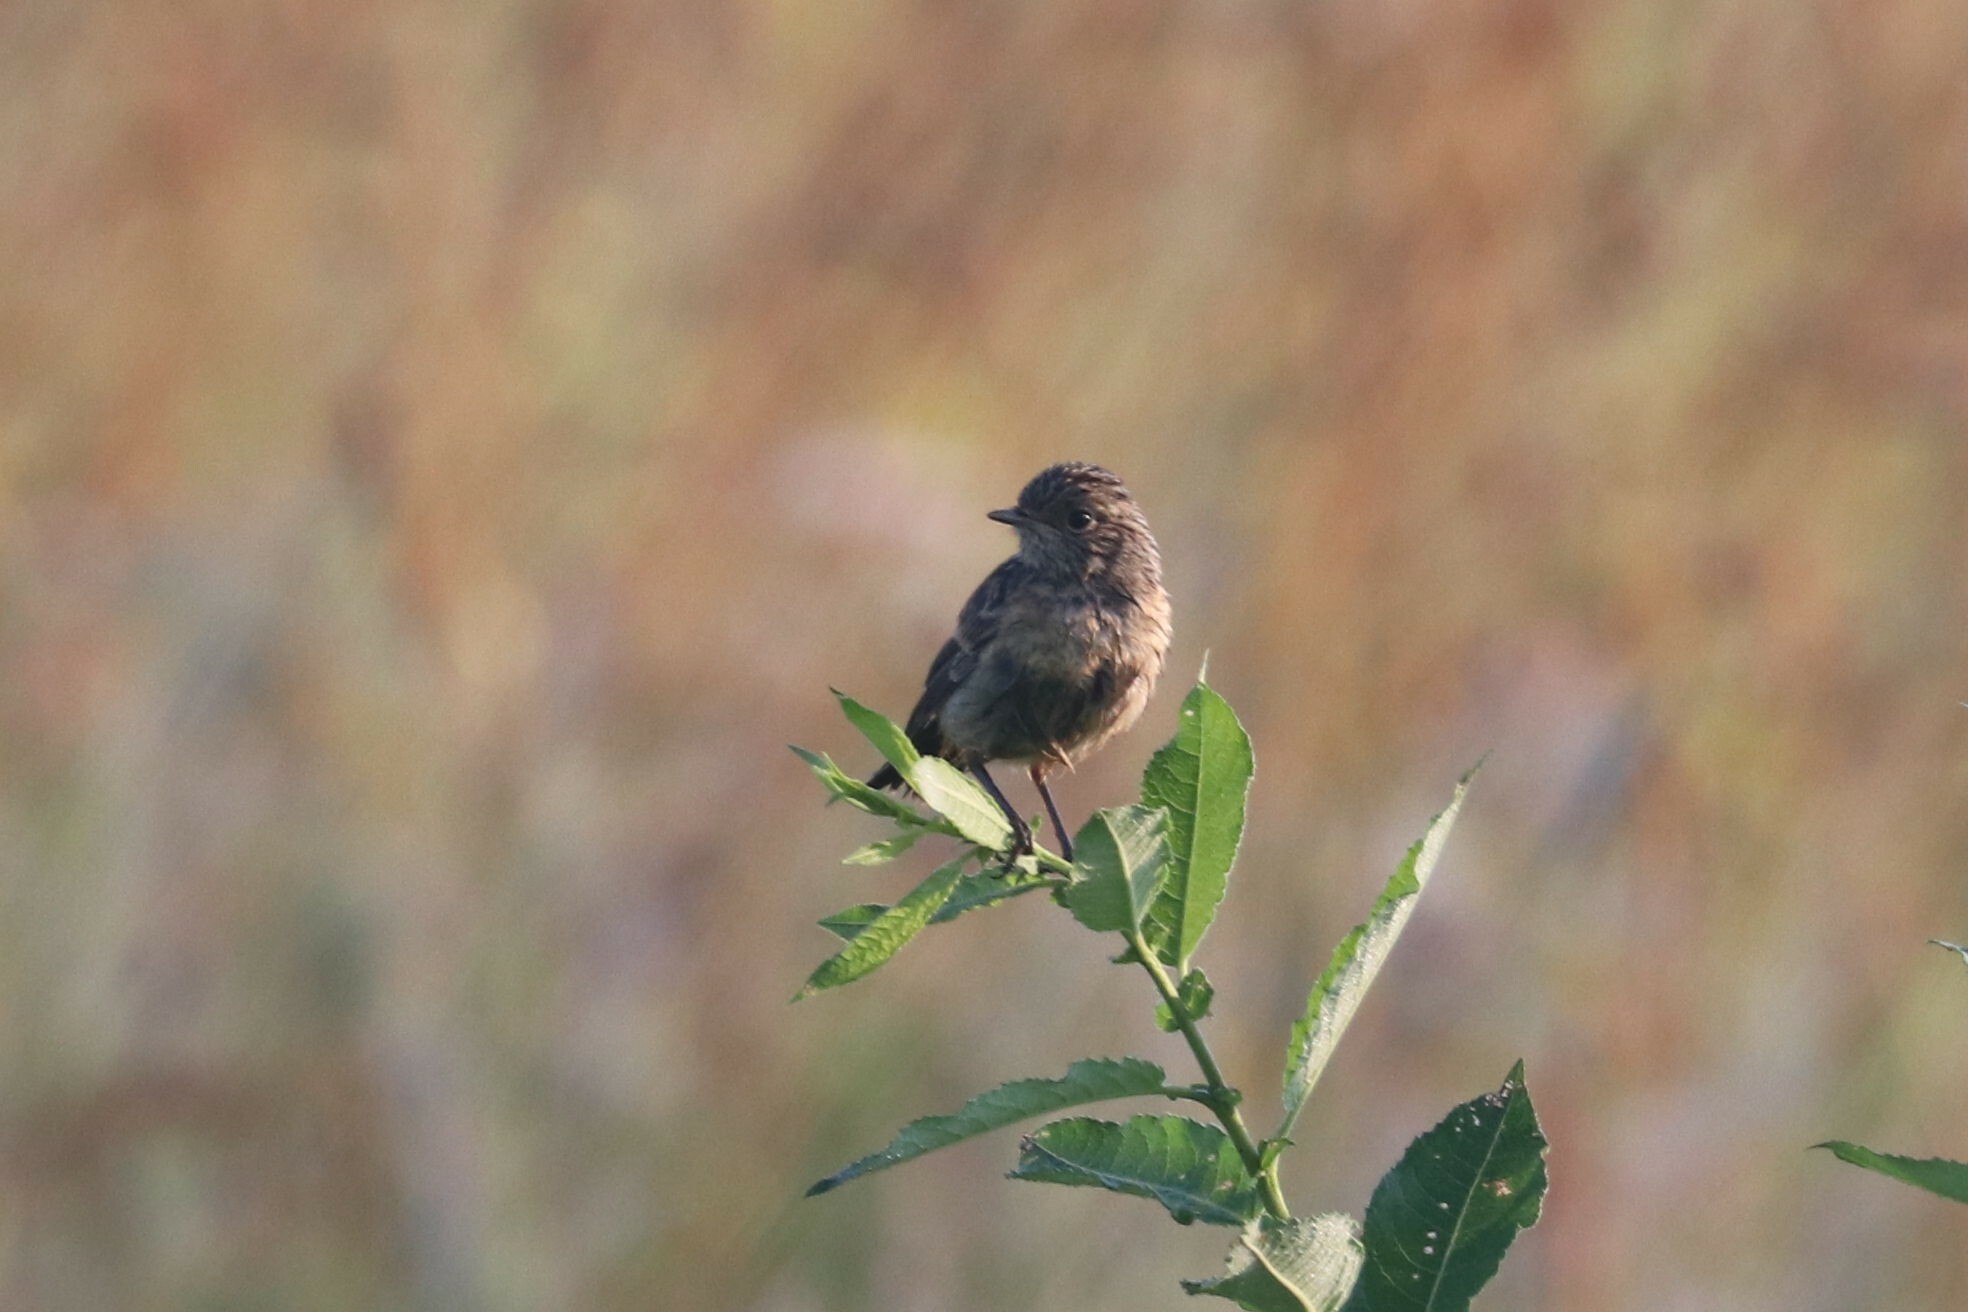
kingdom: Animalia
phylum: Chordata
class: Aves
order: Passeriformes
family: Muscicapidae
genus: Saxicola
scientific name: Saxicola maurus
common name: Siberian stonechat
